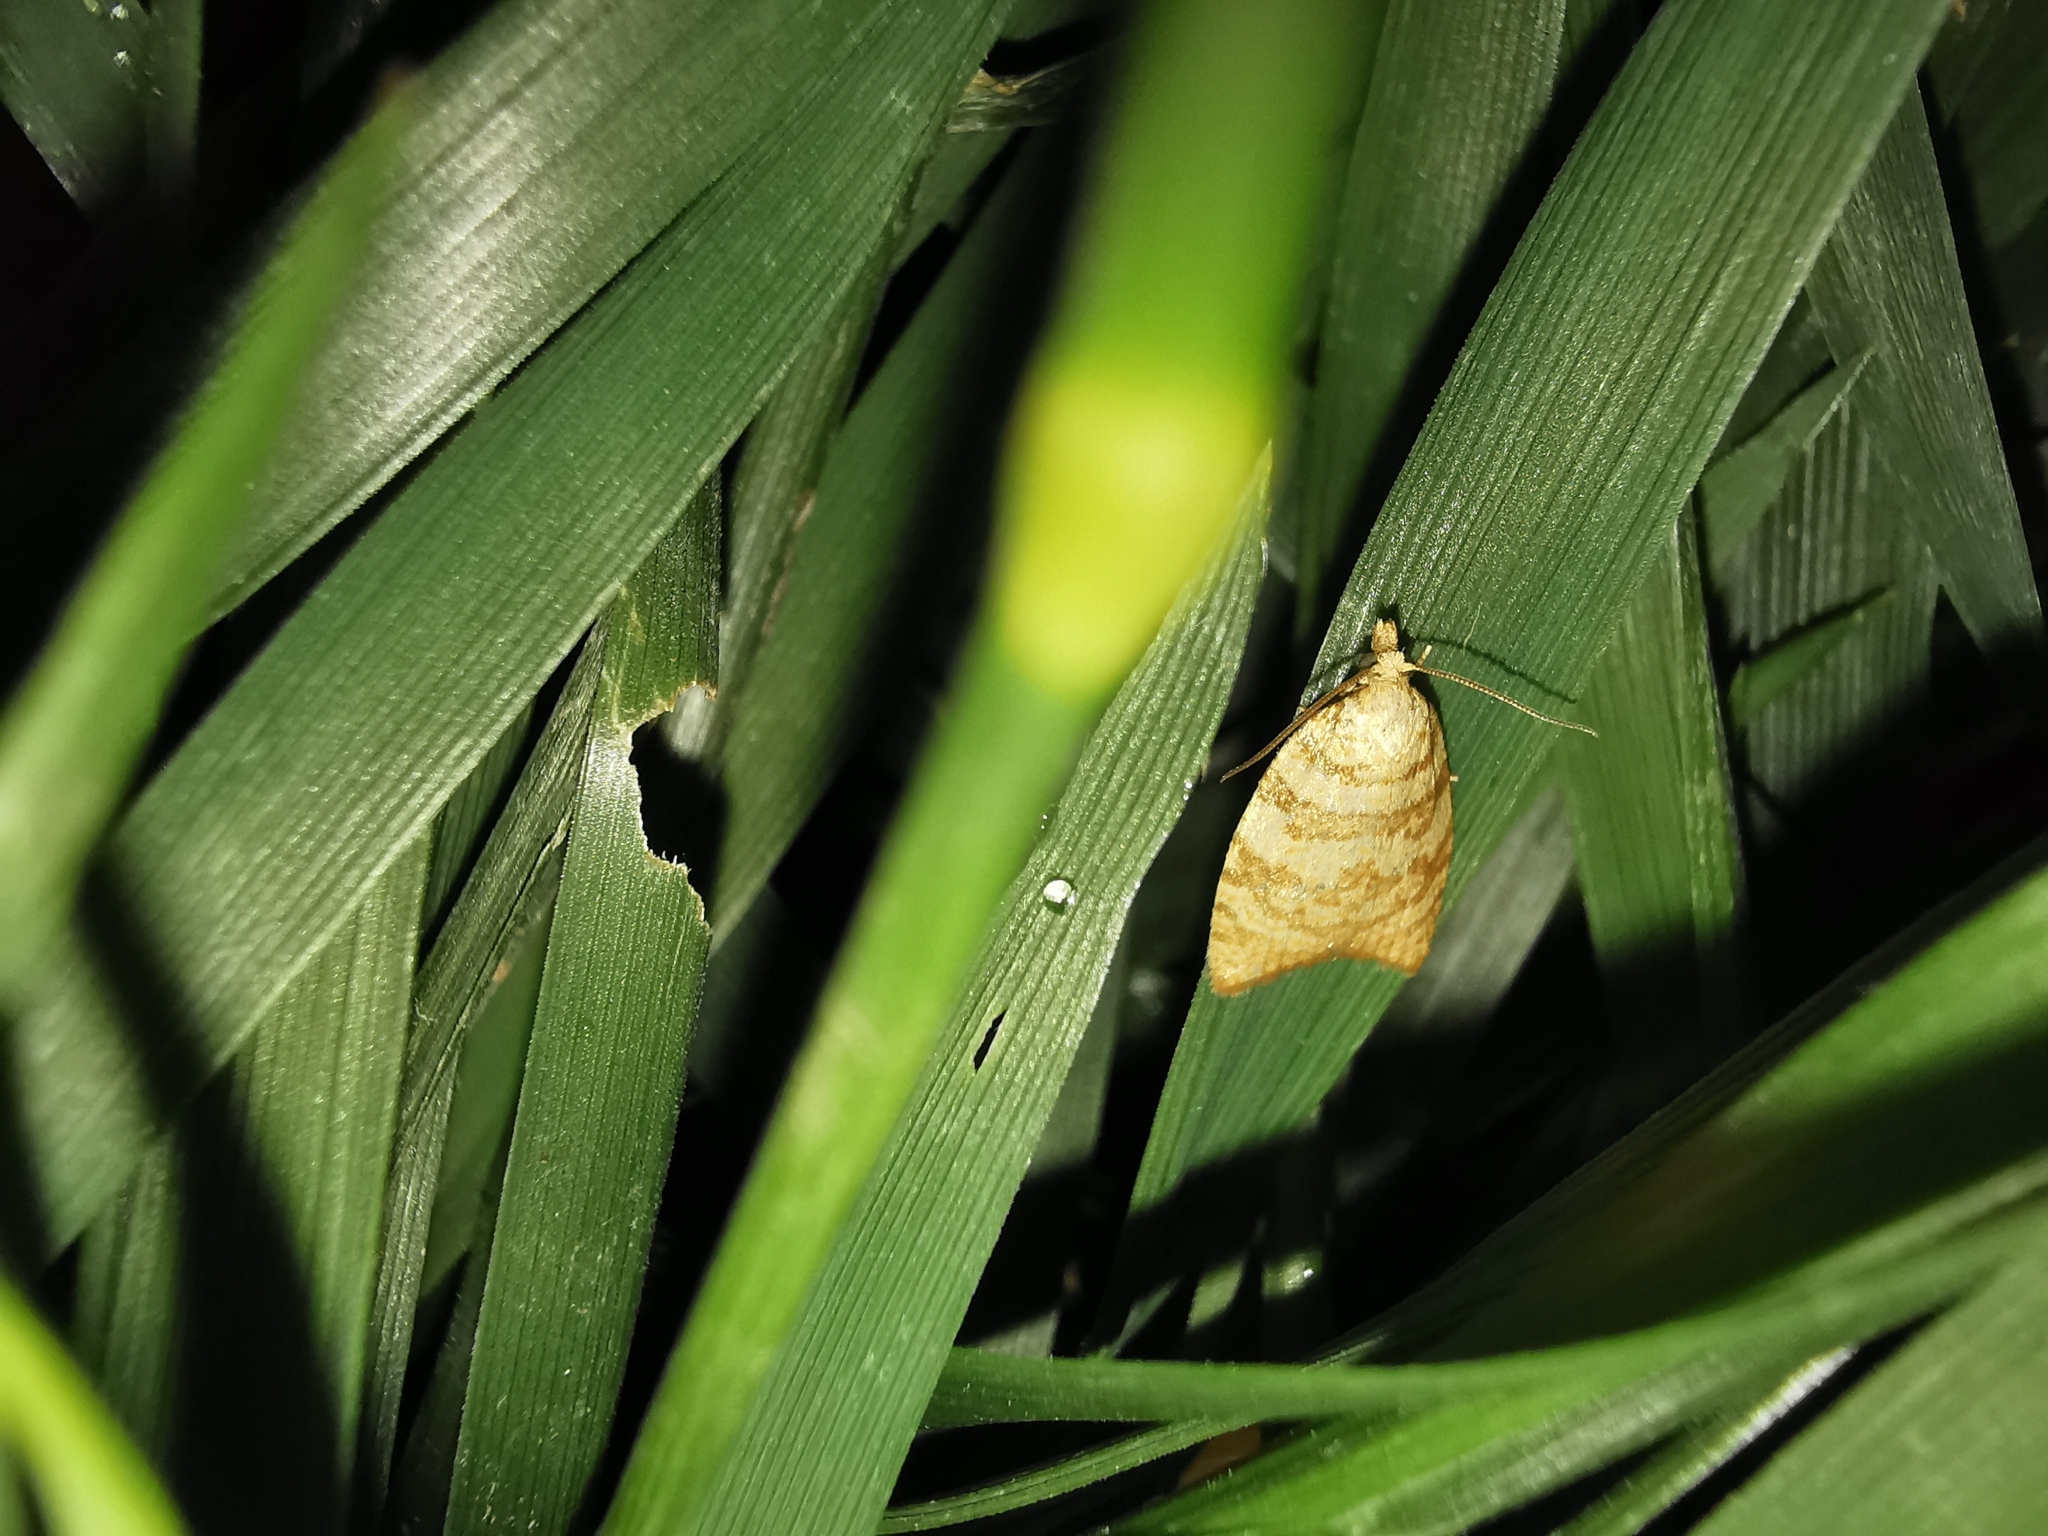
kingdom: Animalia
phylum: Arthropoda
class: Insecta
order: Lepidoptera
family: Tortricidae
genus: Aleimma
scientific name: Aleimma loeflingiana
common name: Yellow oak button
